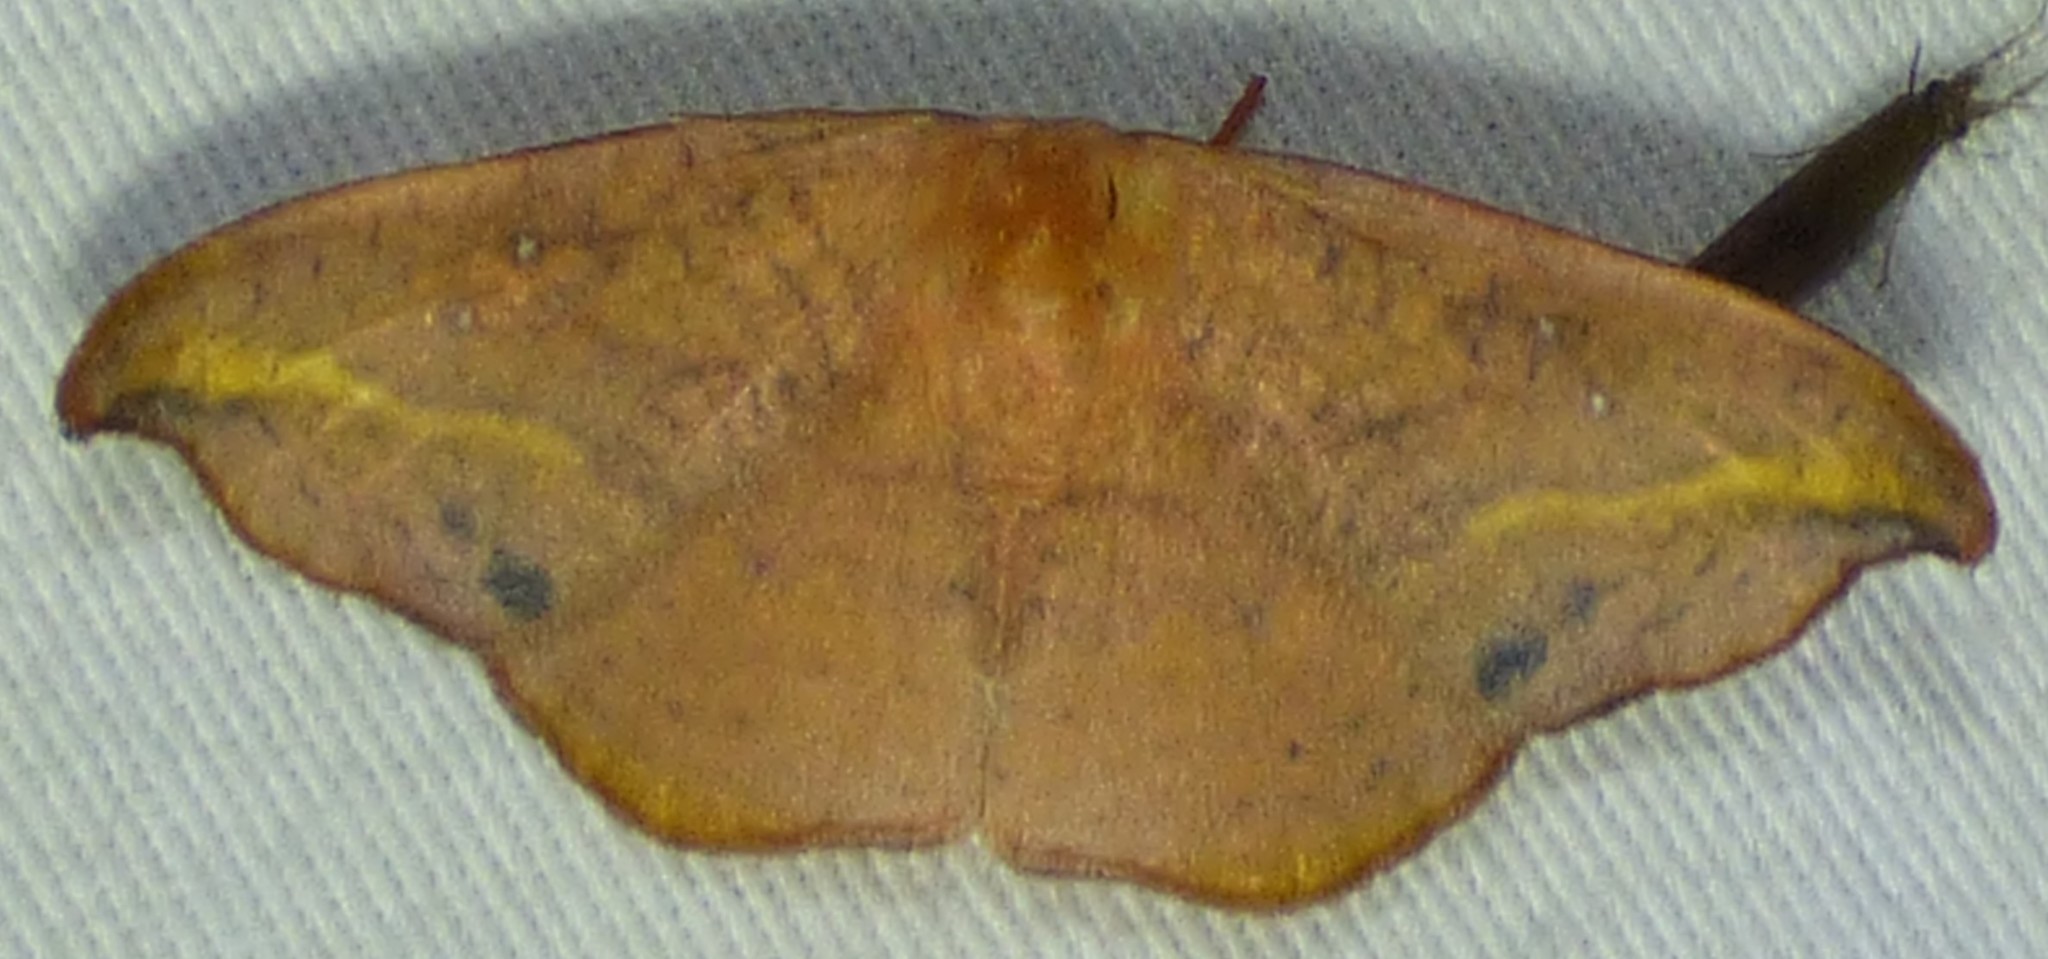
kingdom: Animalia
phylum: Arthropoda
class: Insecta
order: Lepidoptera
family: Drepanidae
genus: Oreta
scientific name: Oreta rosea
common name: Rose hooktip
